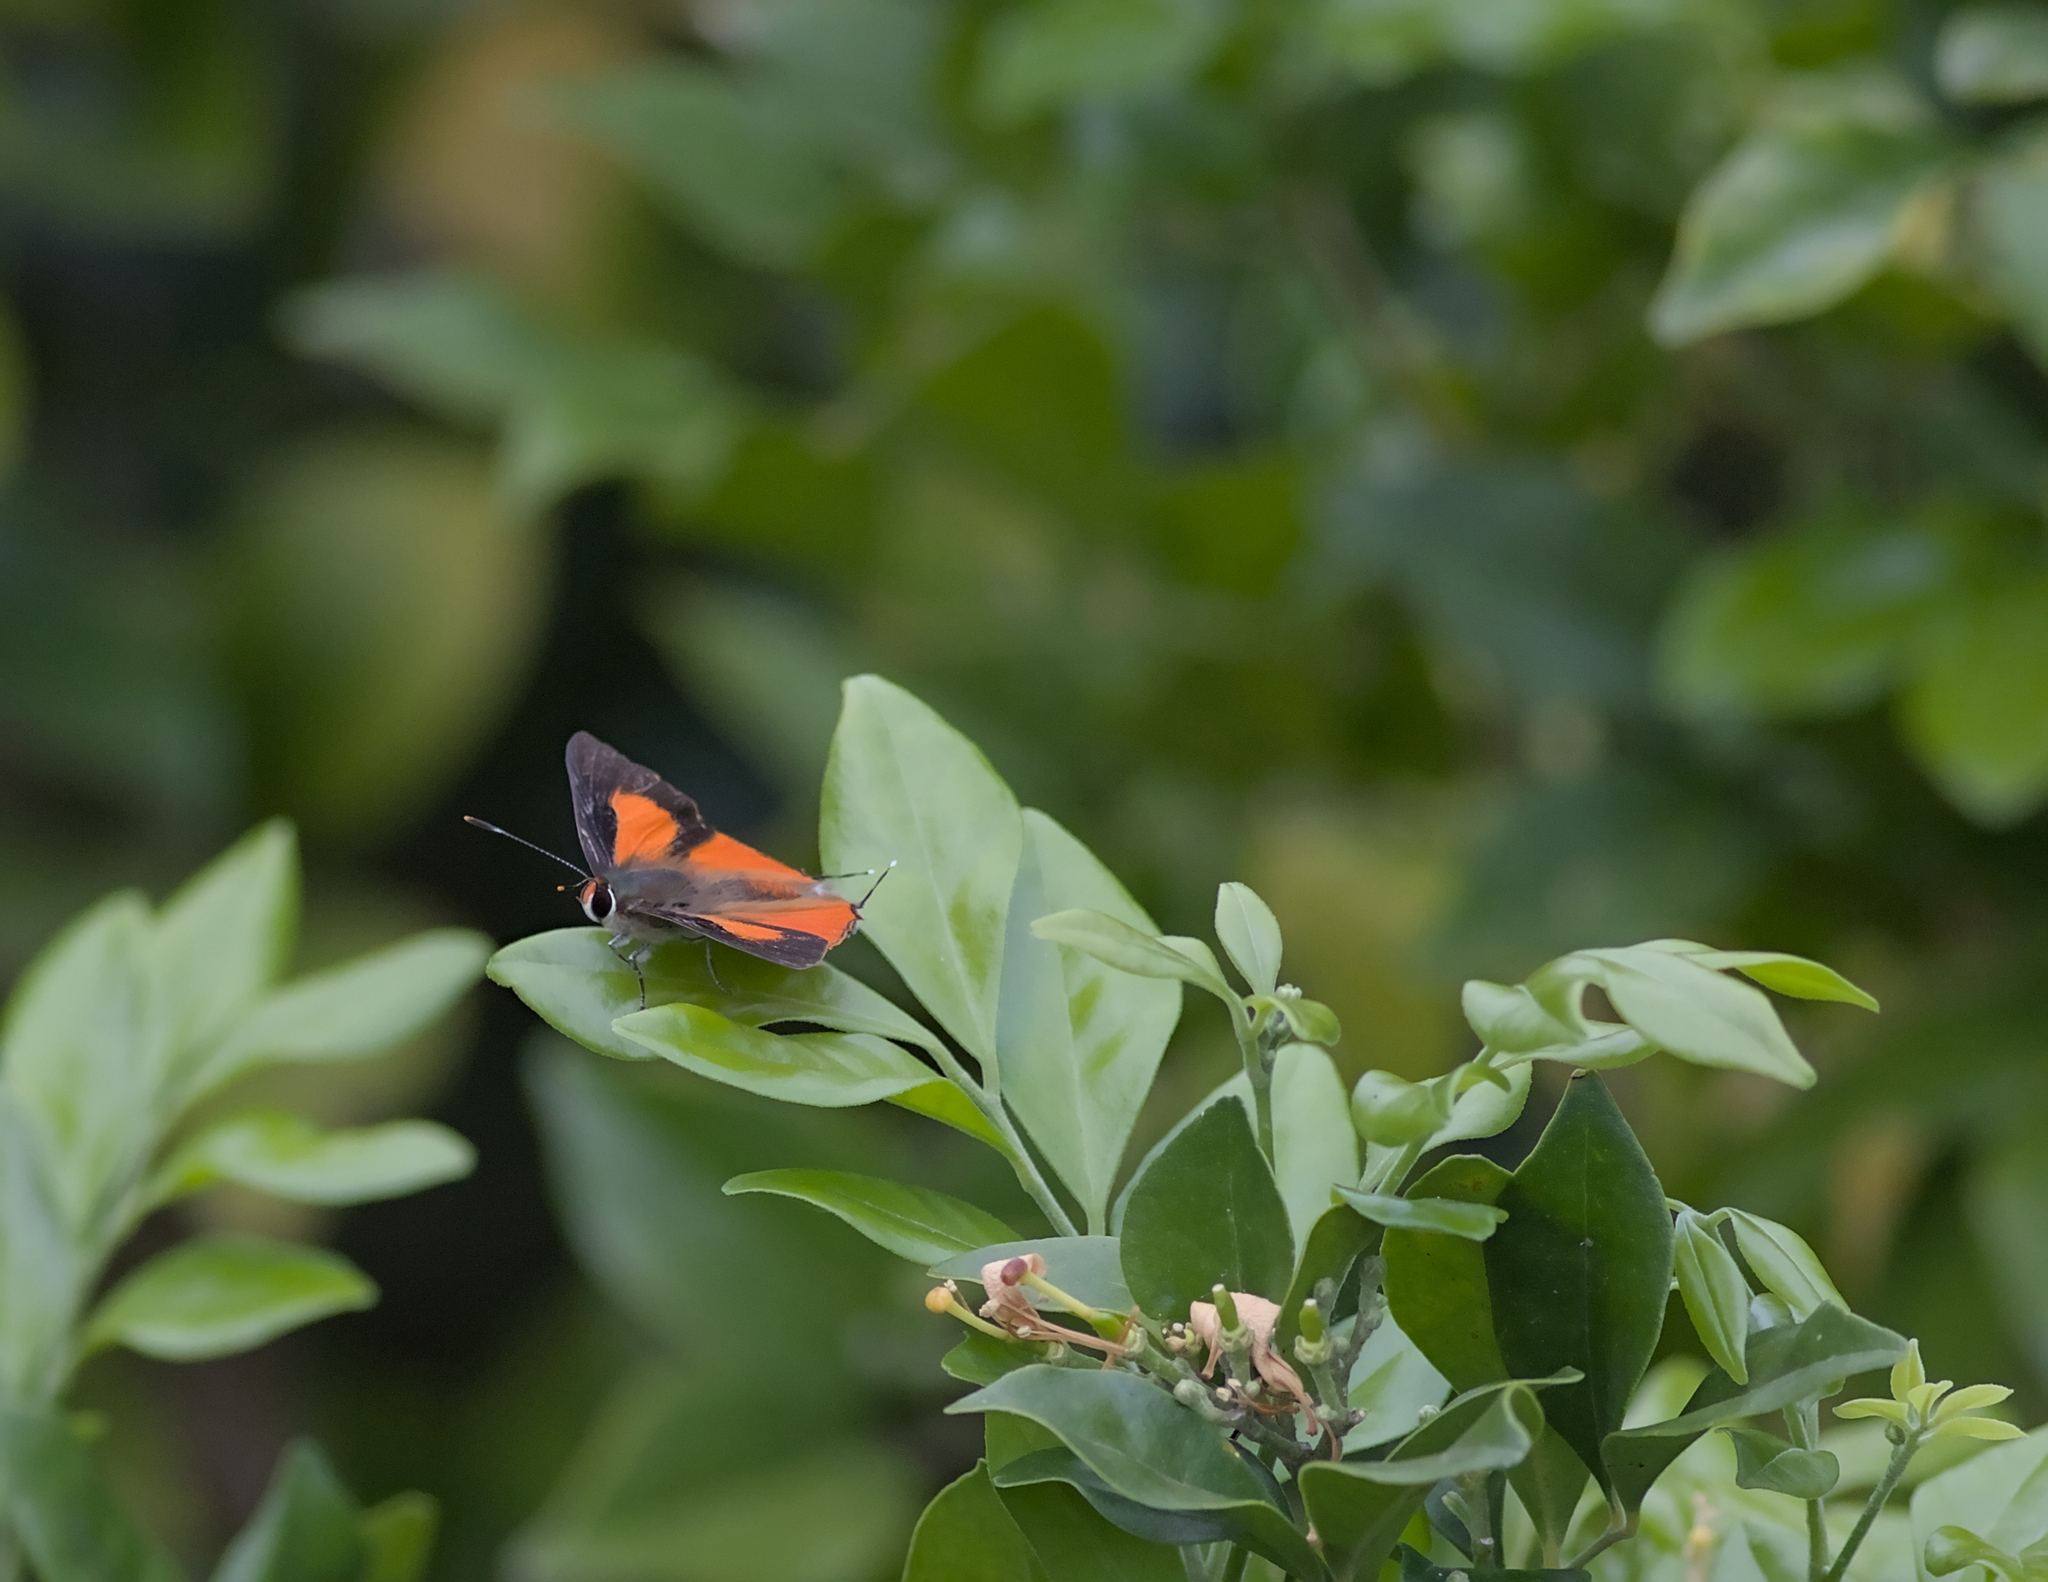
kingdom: Animalia
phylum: Arthropoda
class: Insecta
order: Lepidoptera
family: Lycaenidae
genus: Deudorix
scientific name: Deudorix diovis
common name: Bright cornelian
